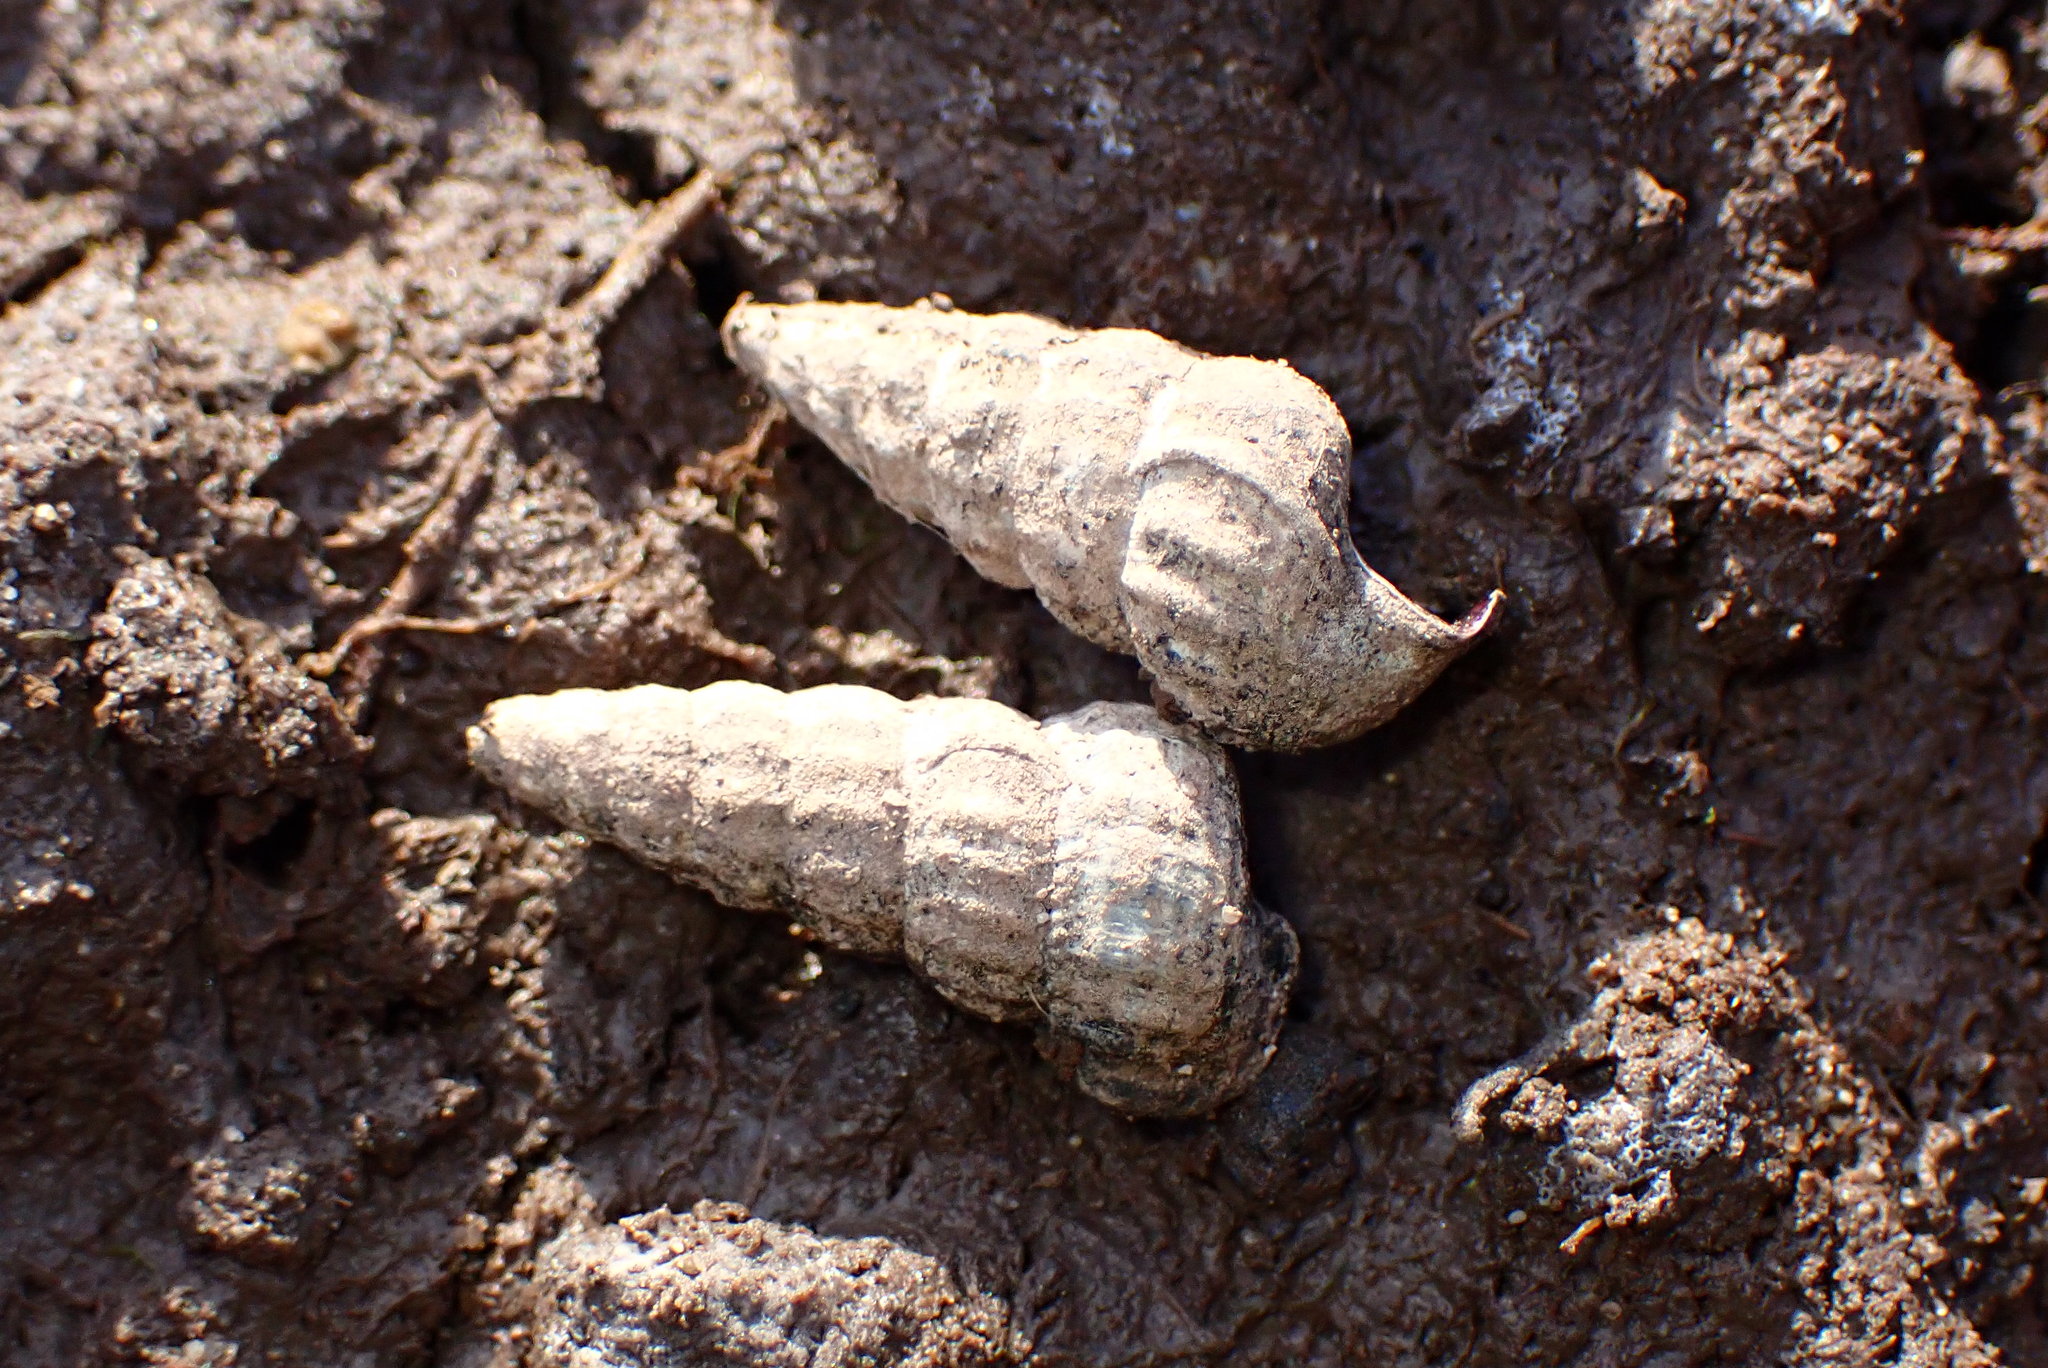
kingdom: Animalia
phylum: Mollusca
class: Gastropoda
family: Potamididae
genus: Cerithideopsis
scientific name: Cerithideopsis californica
